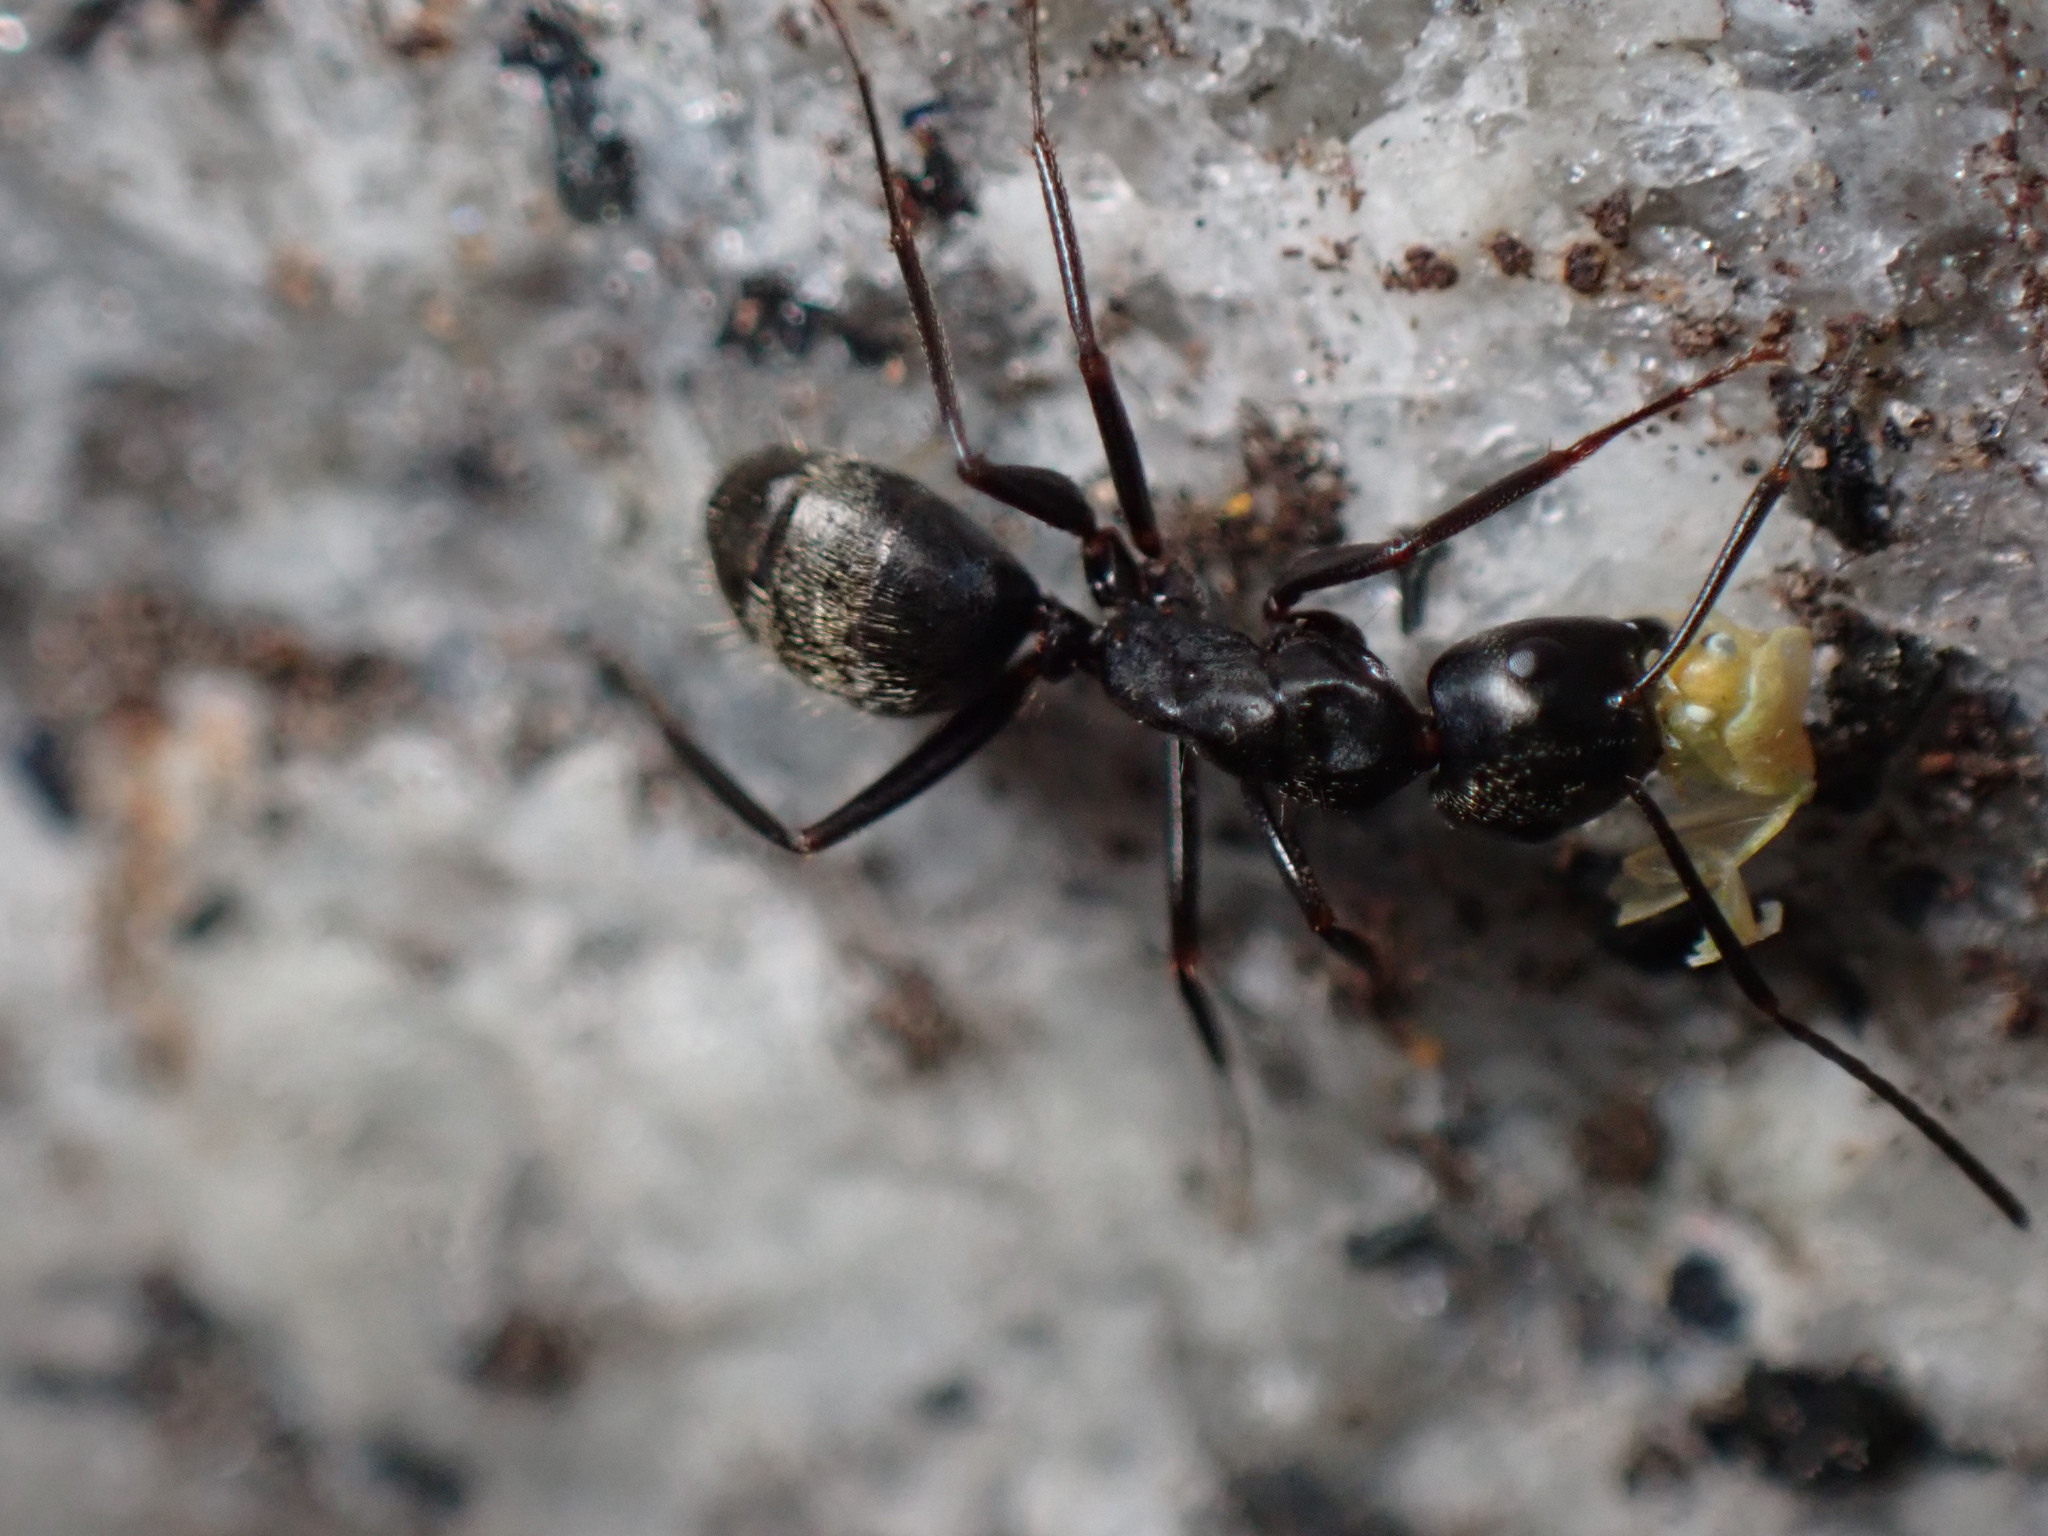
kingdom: Animalia
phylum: Arthropoda
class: Insecta
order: Hymenoptera
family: Formicidae
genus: Camponotus
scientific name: Camponotus pennsylvanicus
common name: Black carpenter ant
